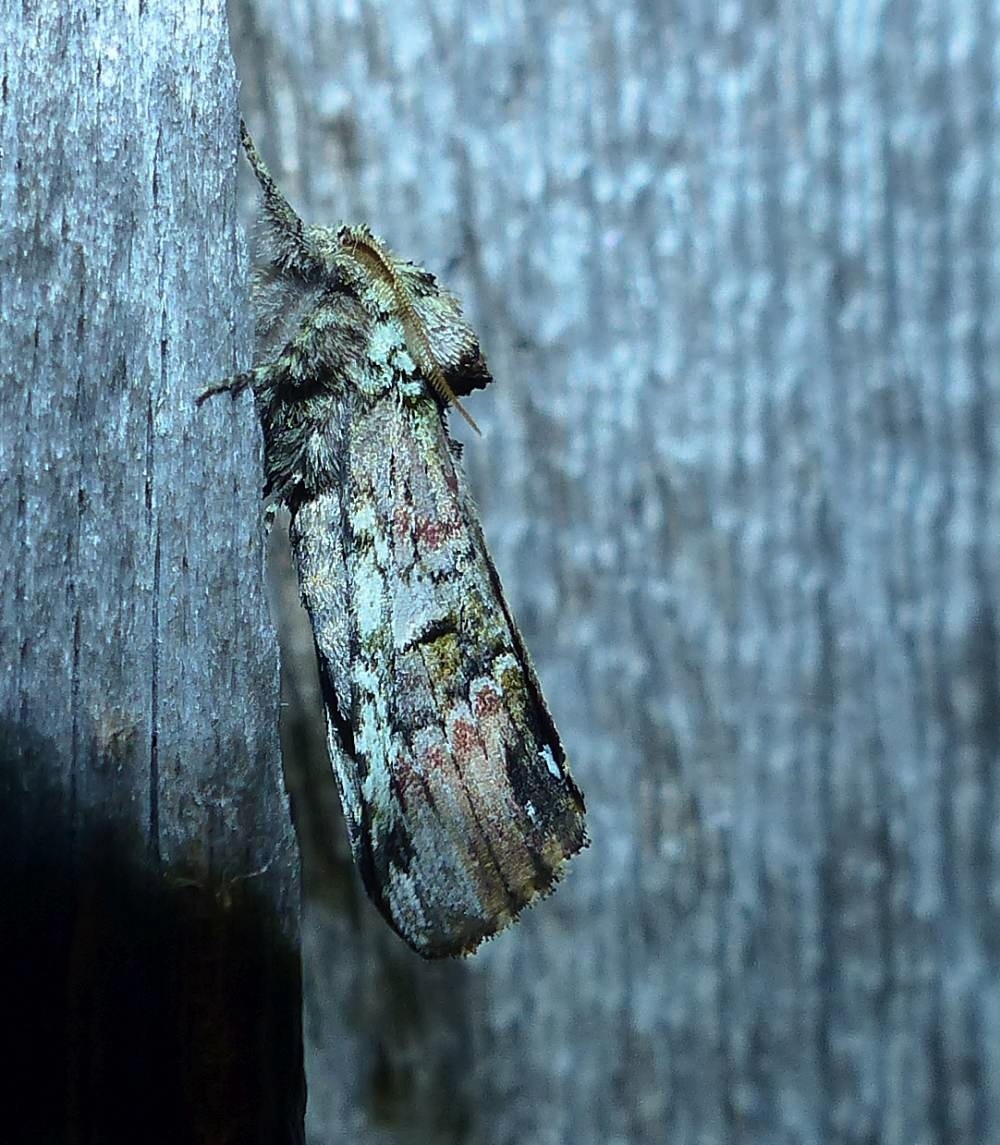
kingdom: Animalia
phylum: Arthropoda
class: Insecta
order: Lepidoptera
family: Notodontidae
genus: Schizura
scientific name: Schizura
